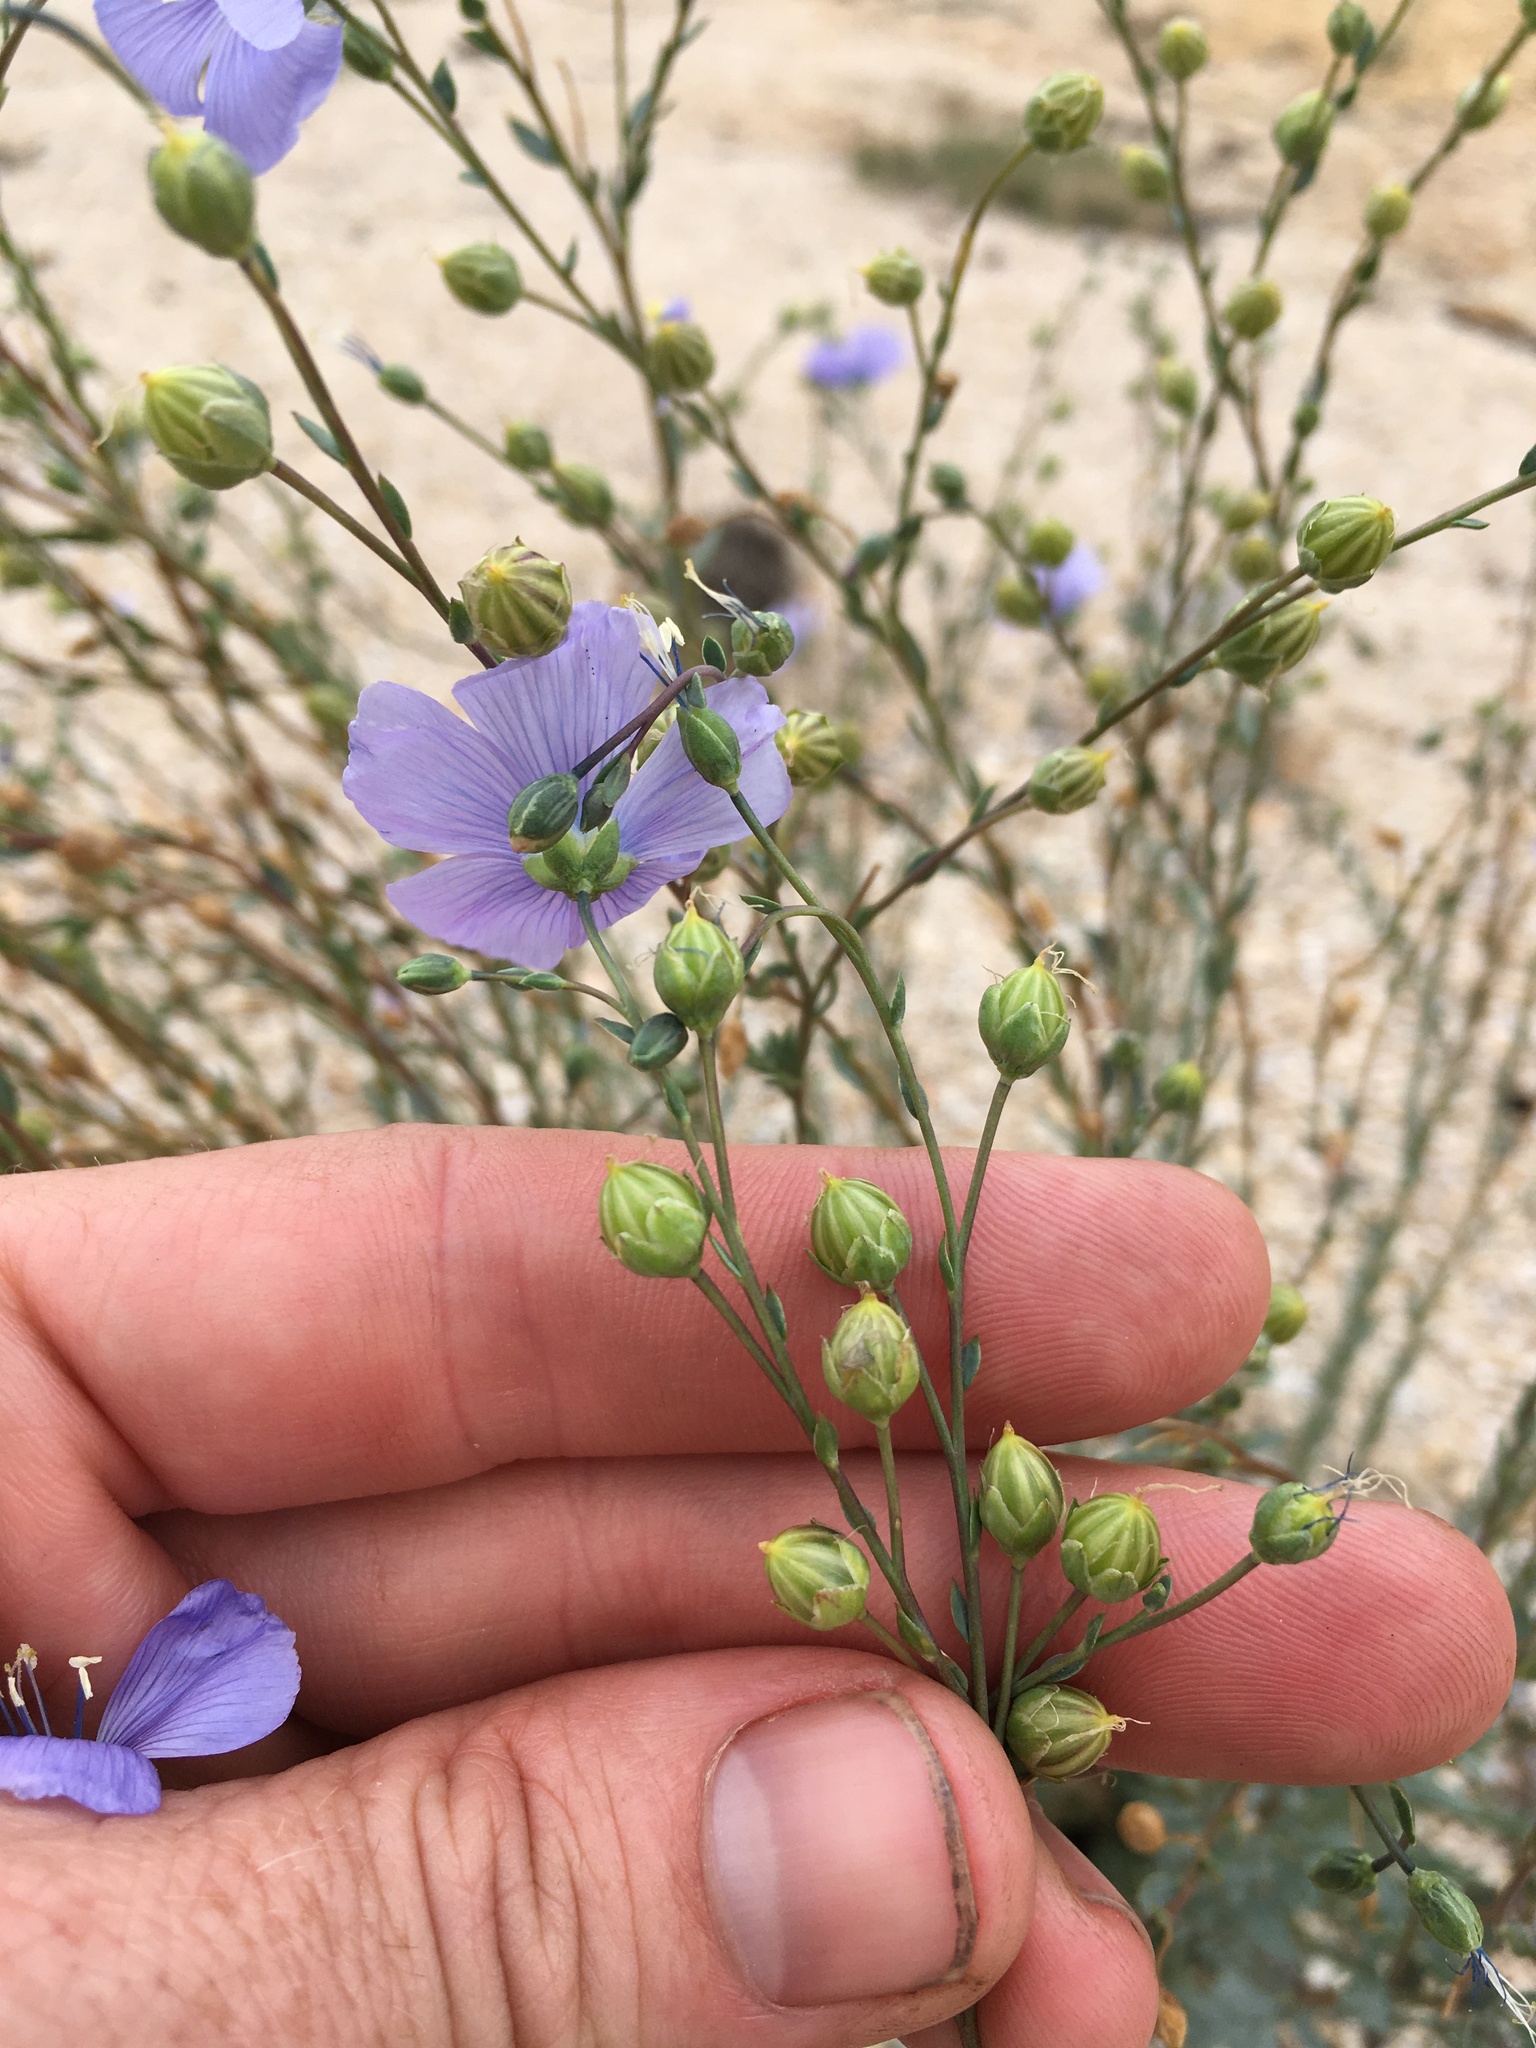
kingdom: Plantae
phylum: Tracheophyta
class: Magnoliopsida
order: Malpighiales
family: Linaceae
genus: Linum
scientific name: Linum lewisii
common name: Prairie flax
